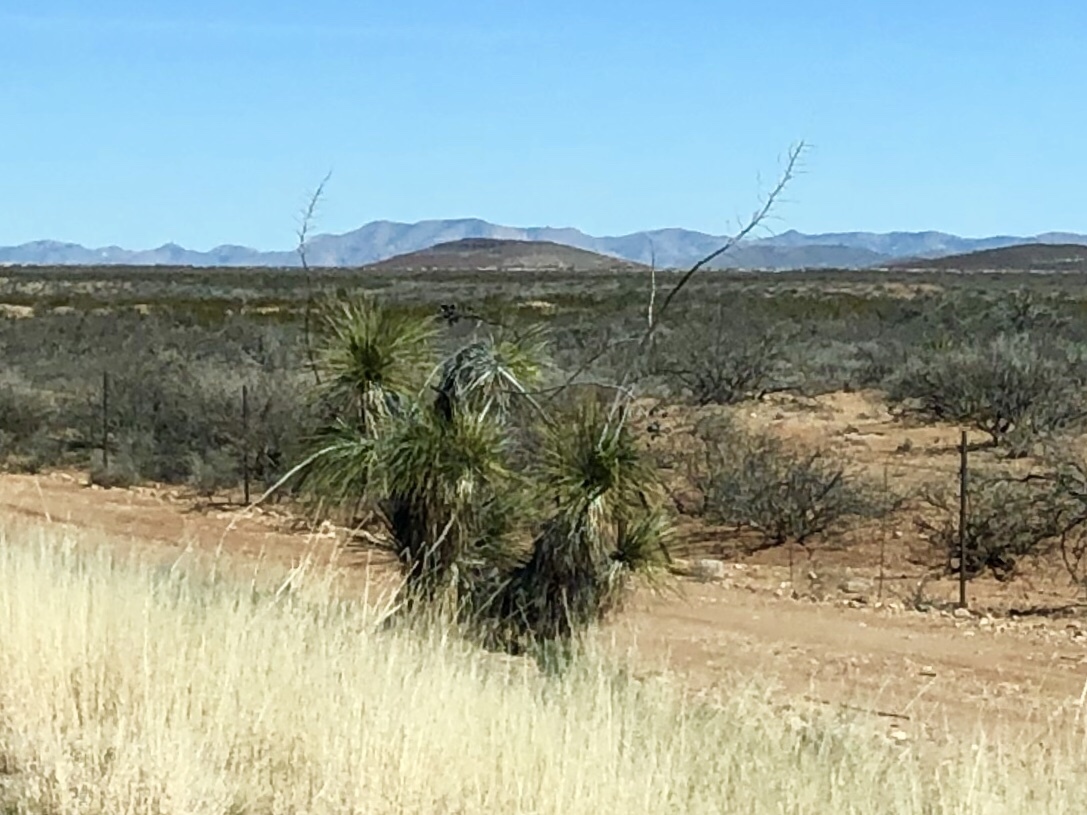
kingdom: Plantae
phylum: Tracheophyta
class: Liliopsida
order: Asparagales
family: Asparagaceae
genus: Yucca
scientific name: Yucca elata
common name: Palmella
